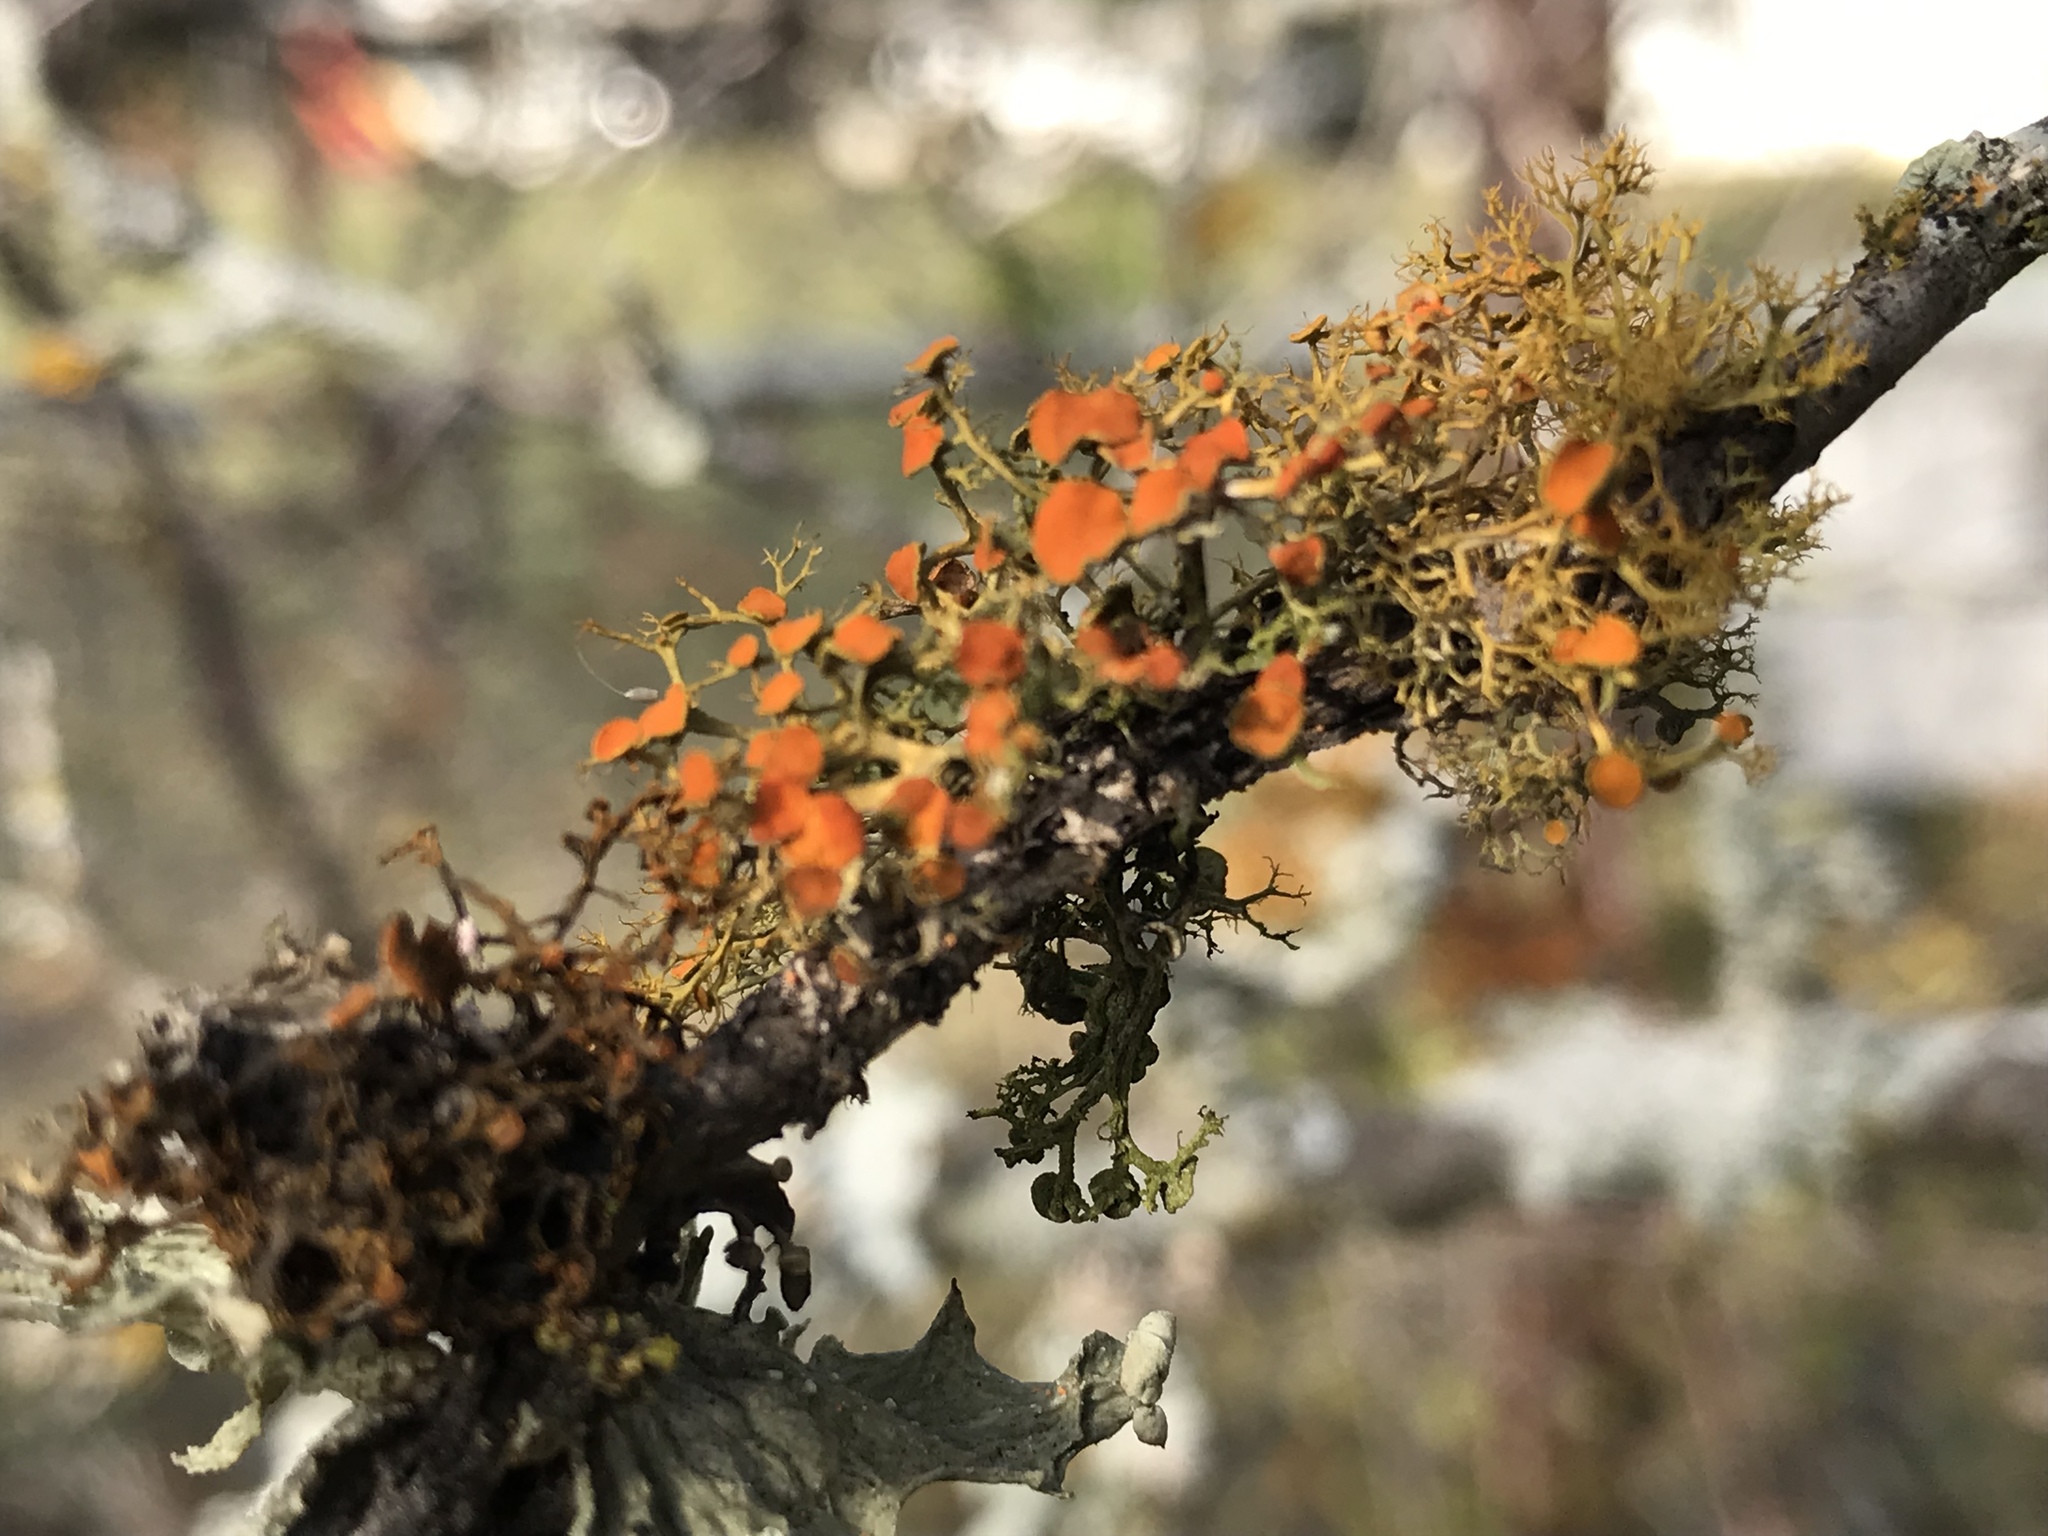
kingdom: Fungi
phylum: Ascomycota
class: Lecanoromycetes
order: Teloschistales
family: Teloschistaceae
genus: Teloschistes
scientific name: Teloschistes exilis
